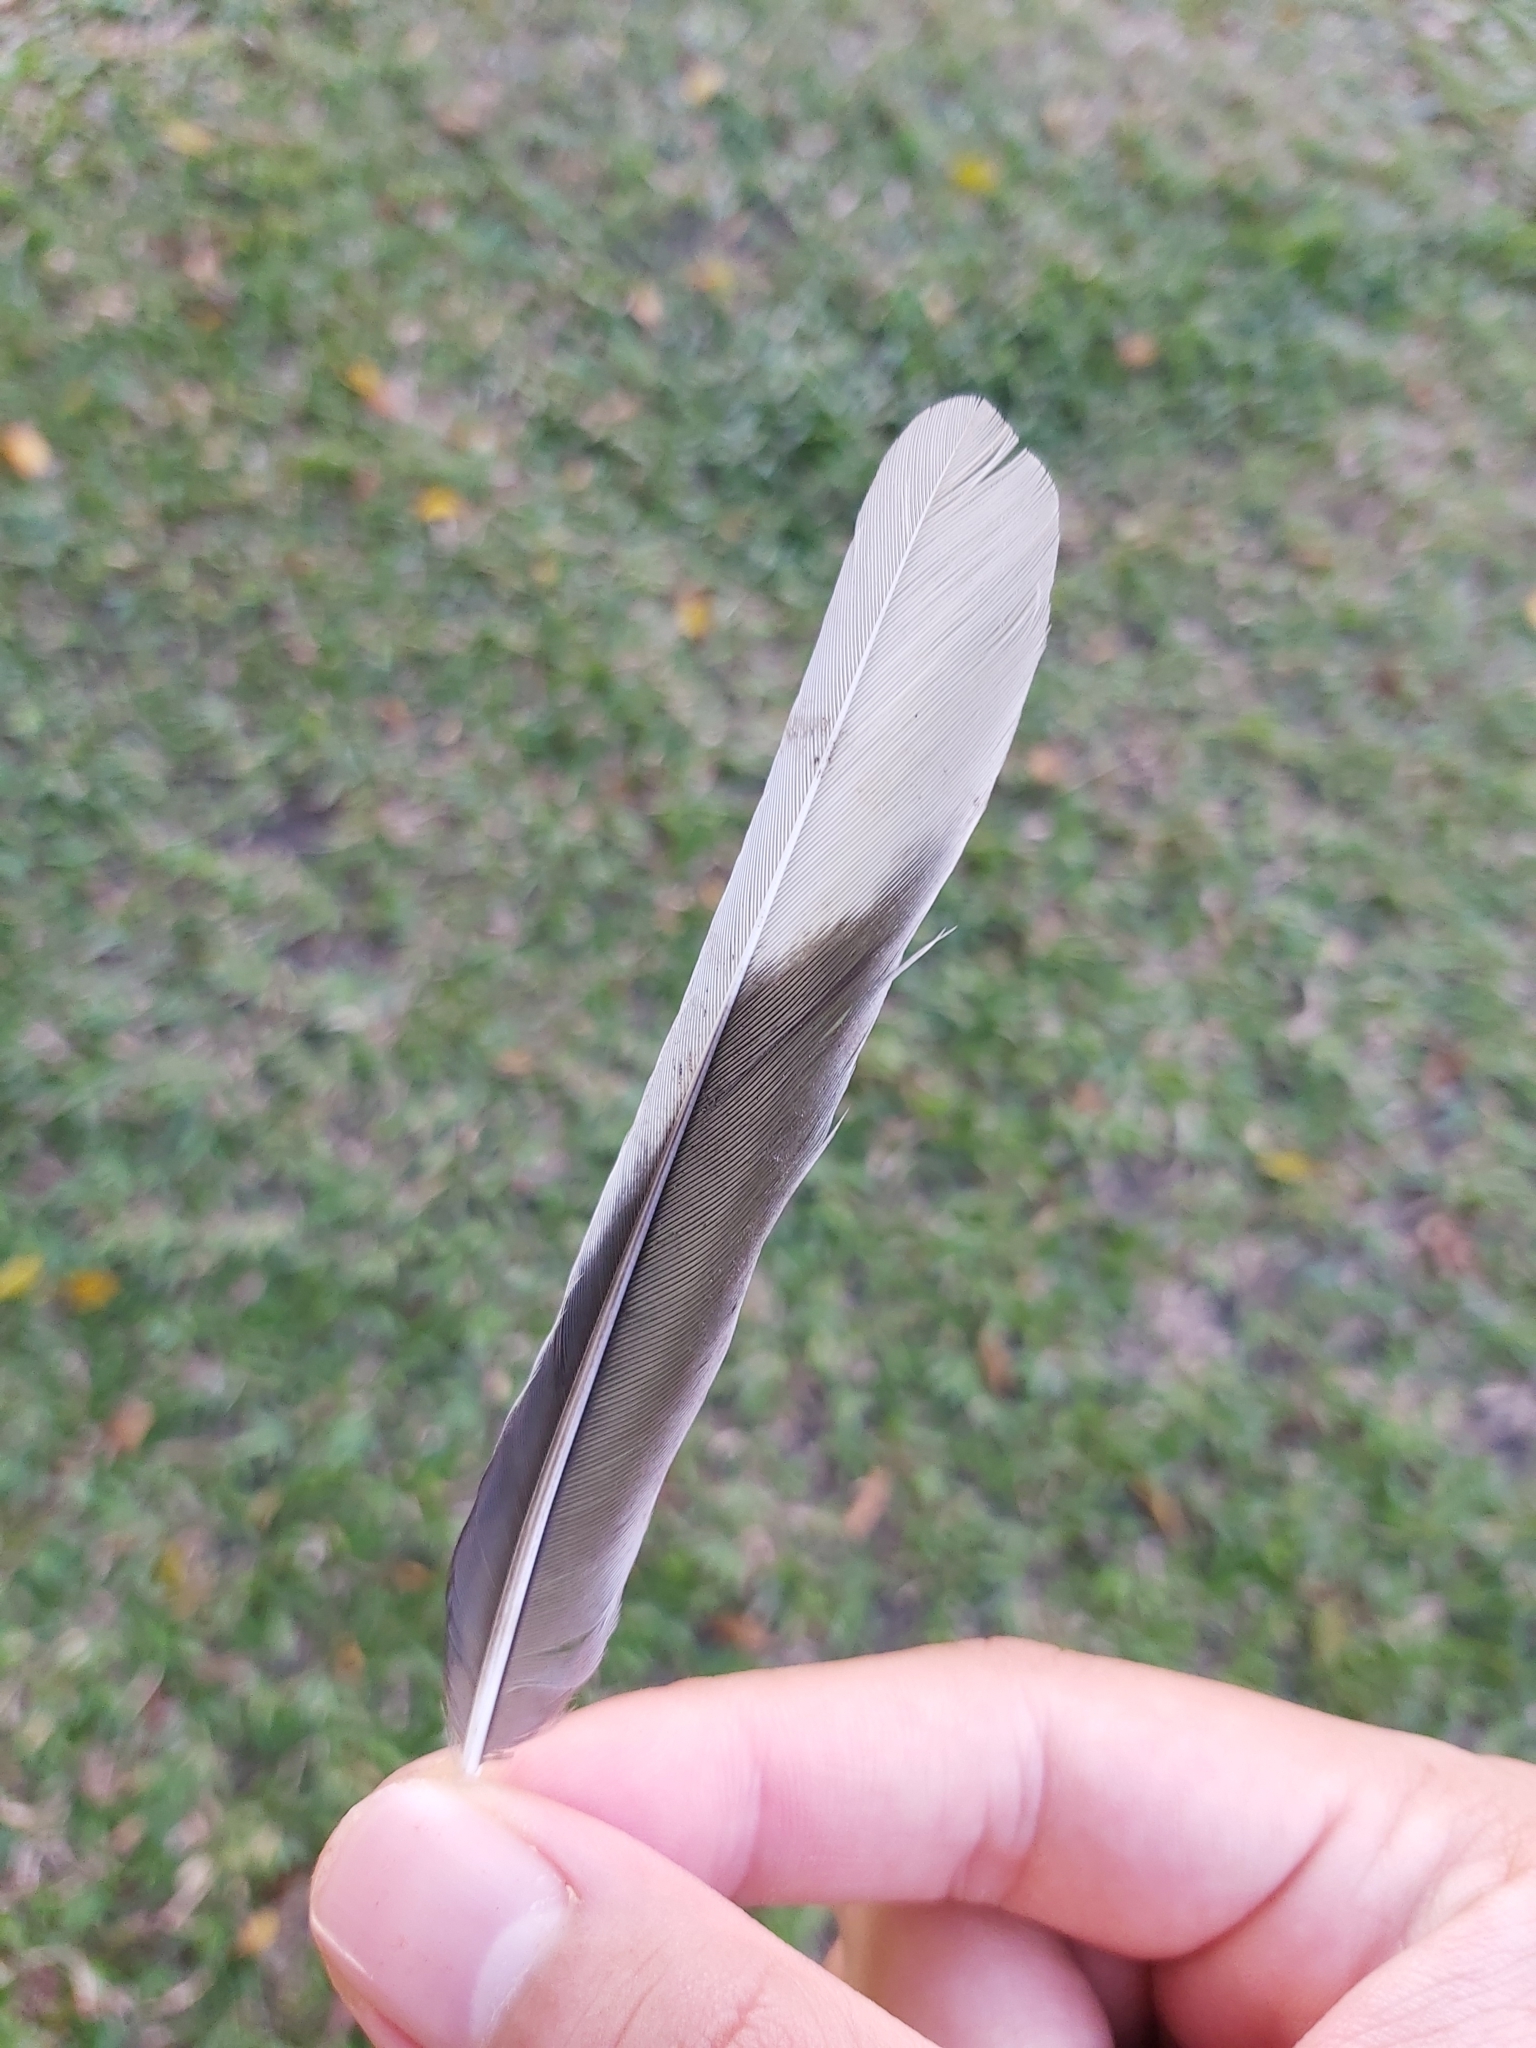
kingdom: Animalia
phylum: Chordata
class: Aves
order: Passeriformes
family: Oriolidae
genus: Sphecotheres
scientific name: Sphecotheres vieilloti
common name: Australasian figbird
